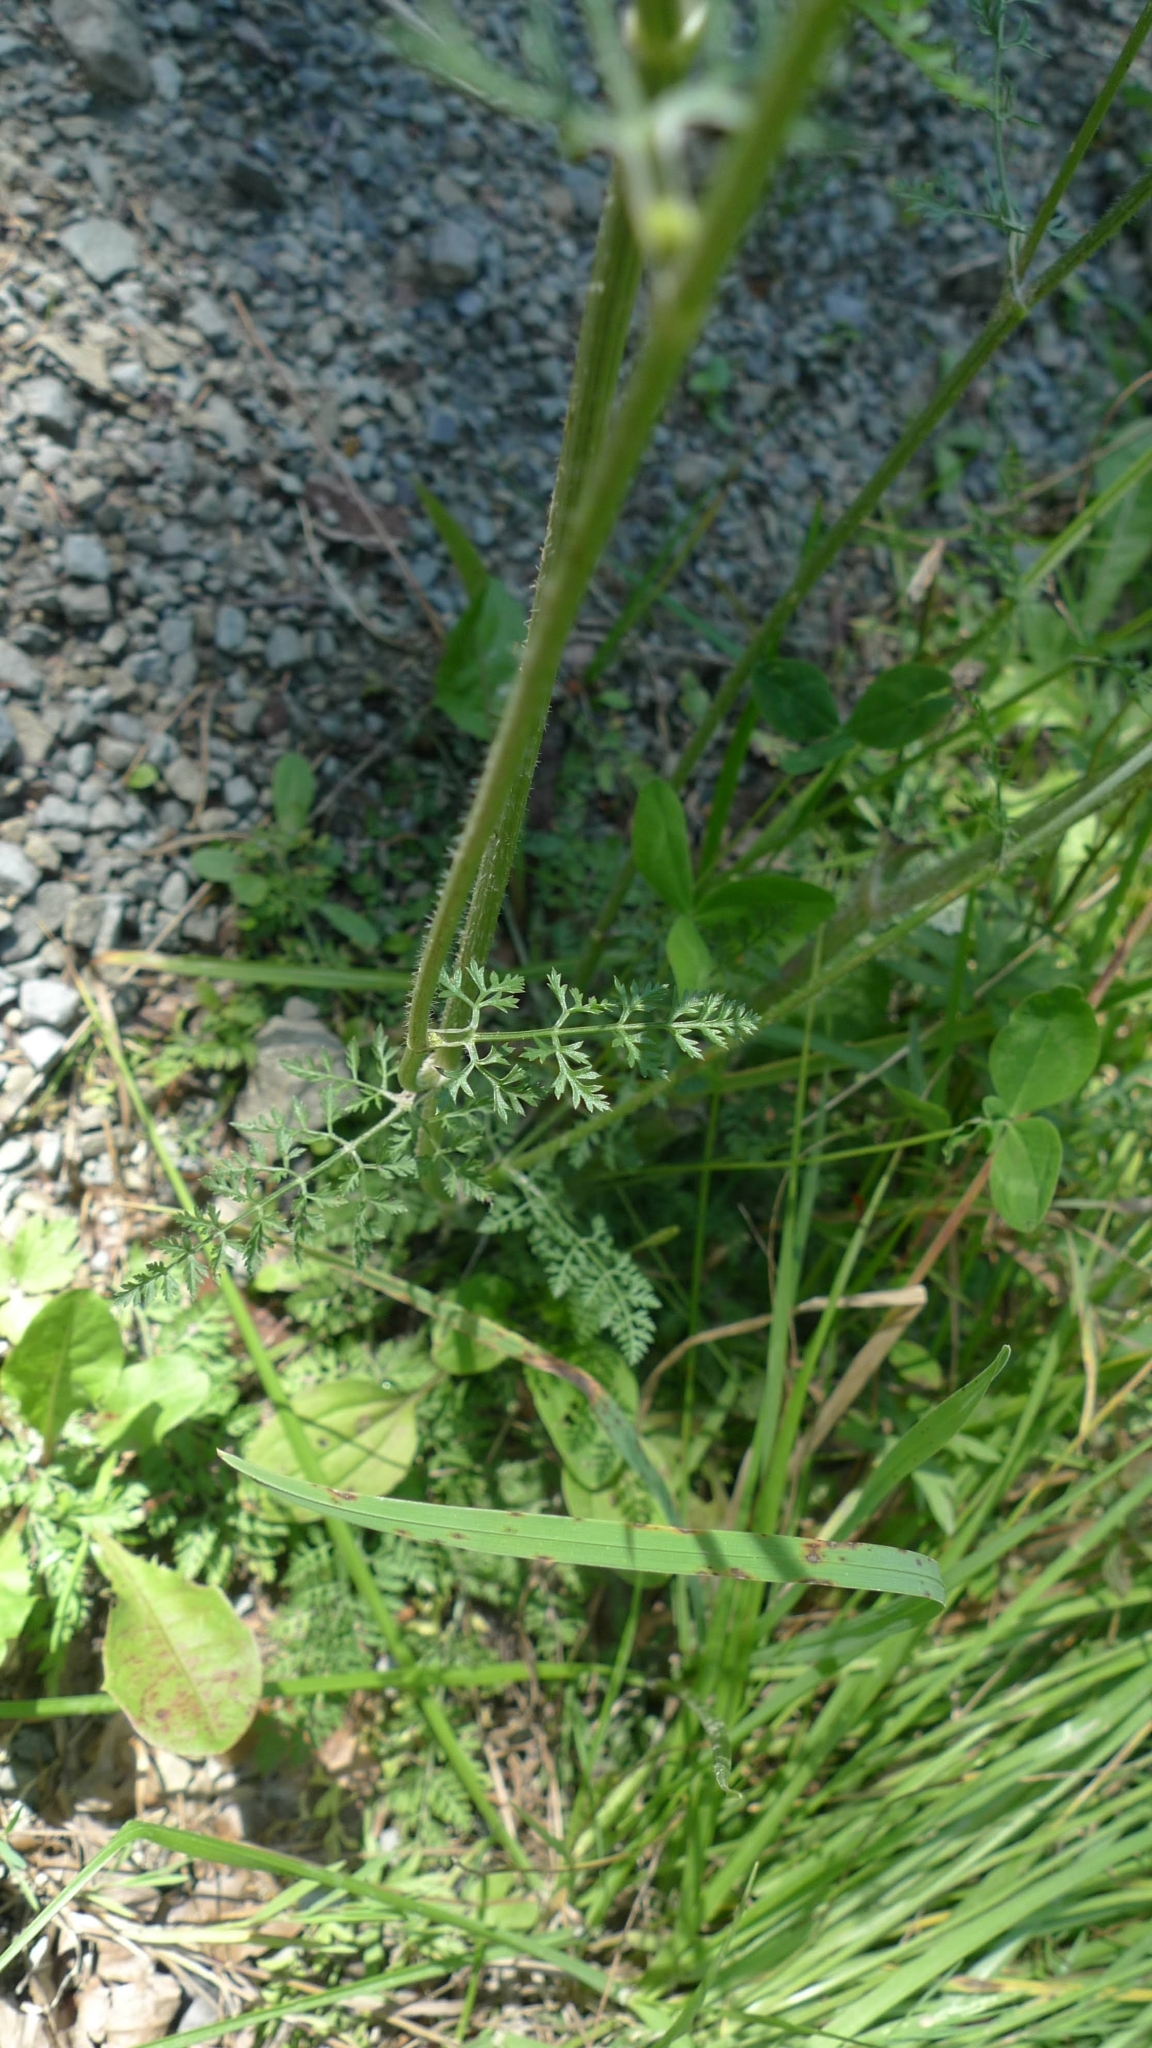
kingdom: Plantae
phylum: Tracheophyta
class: Magnoliopsida
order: Apiales
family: Apiaceae
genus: Daucus
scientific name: Daucus carota
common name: Wild carrot
